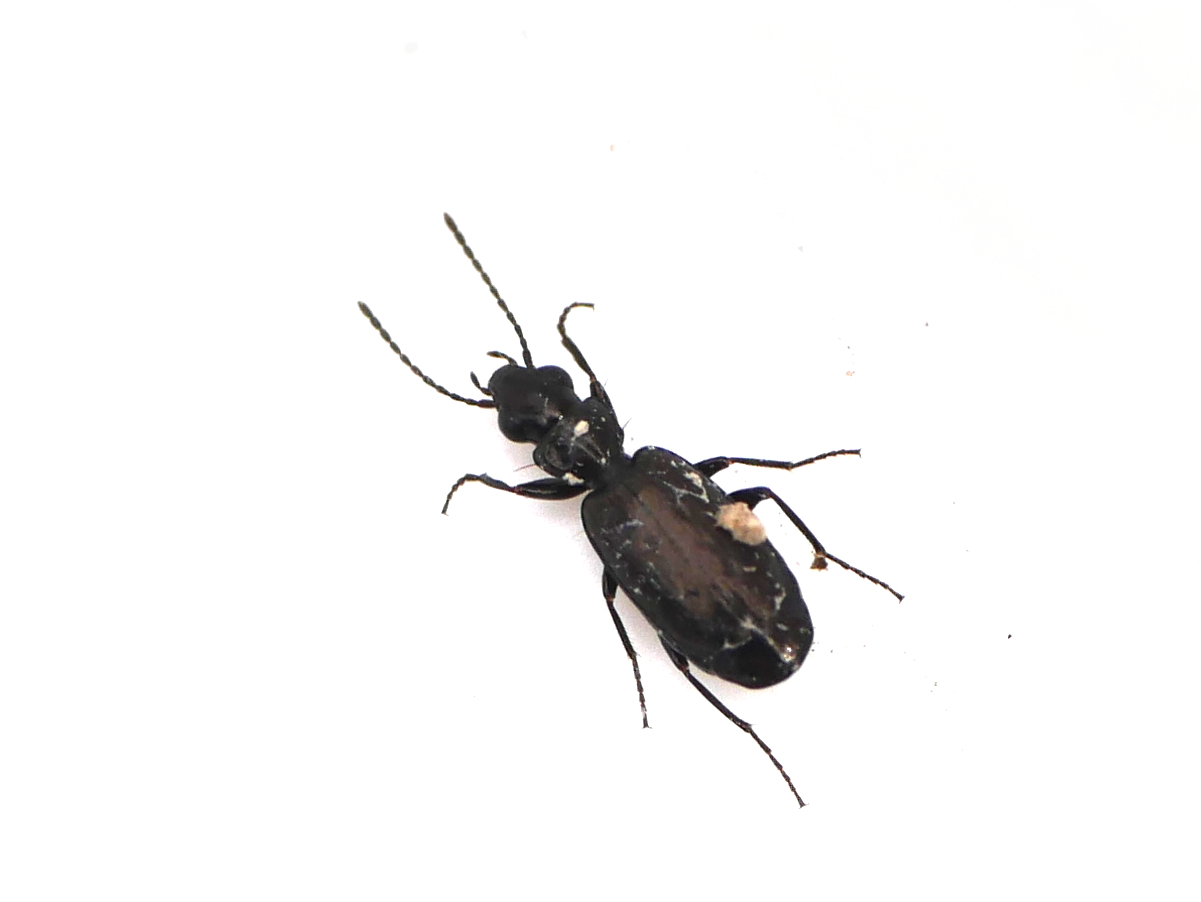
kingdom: Animalia
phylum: Arthropoda
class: Insecta
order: Coleoptera
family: Carabidae
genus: Syntomus
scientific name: Syntomus foveatus
